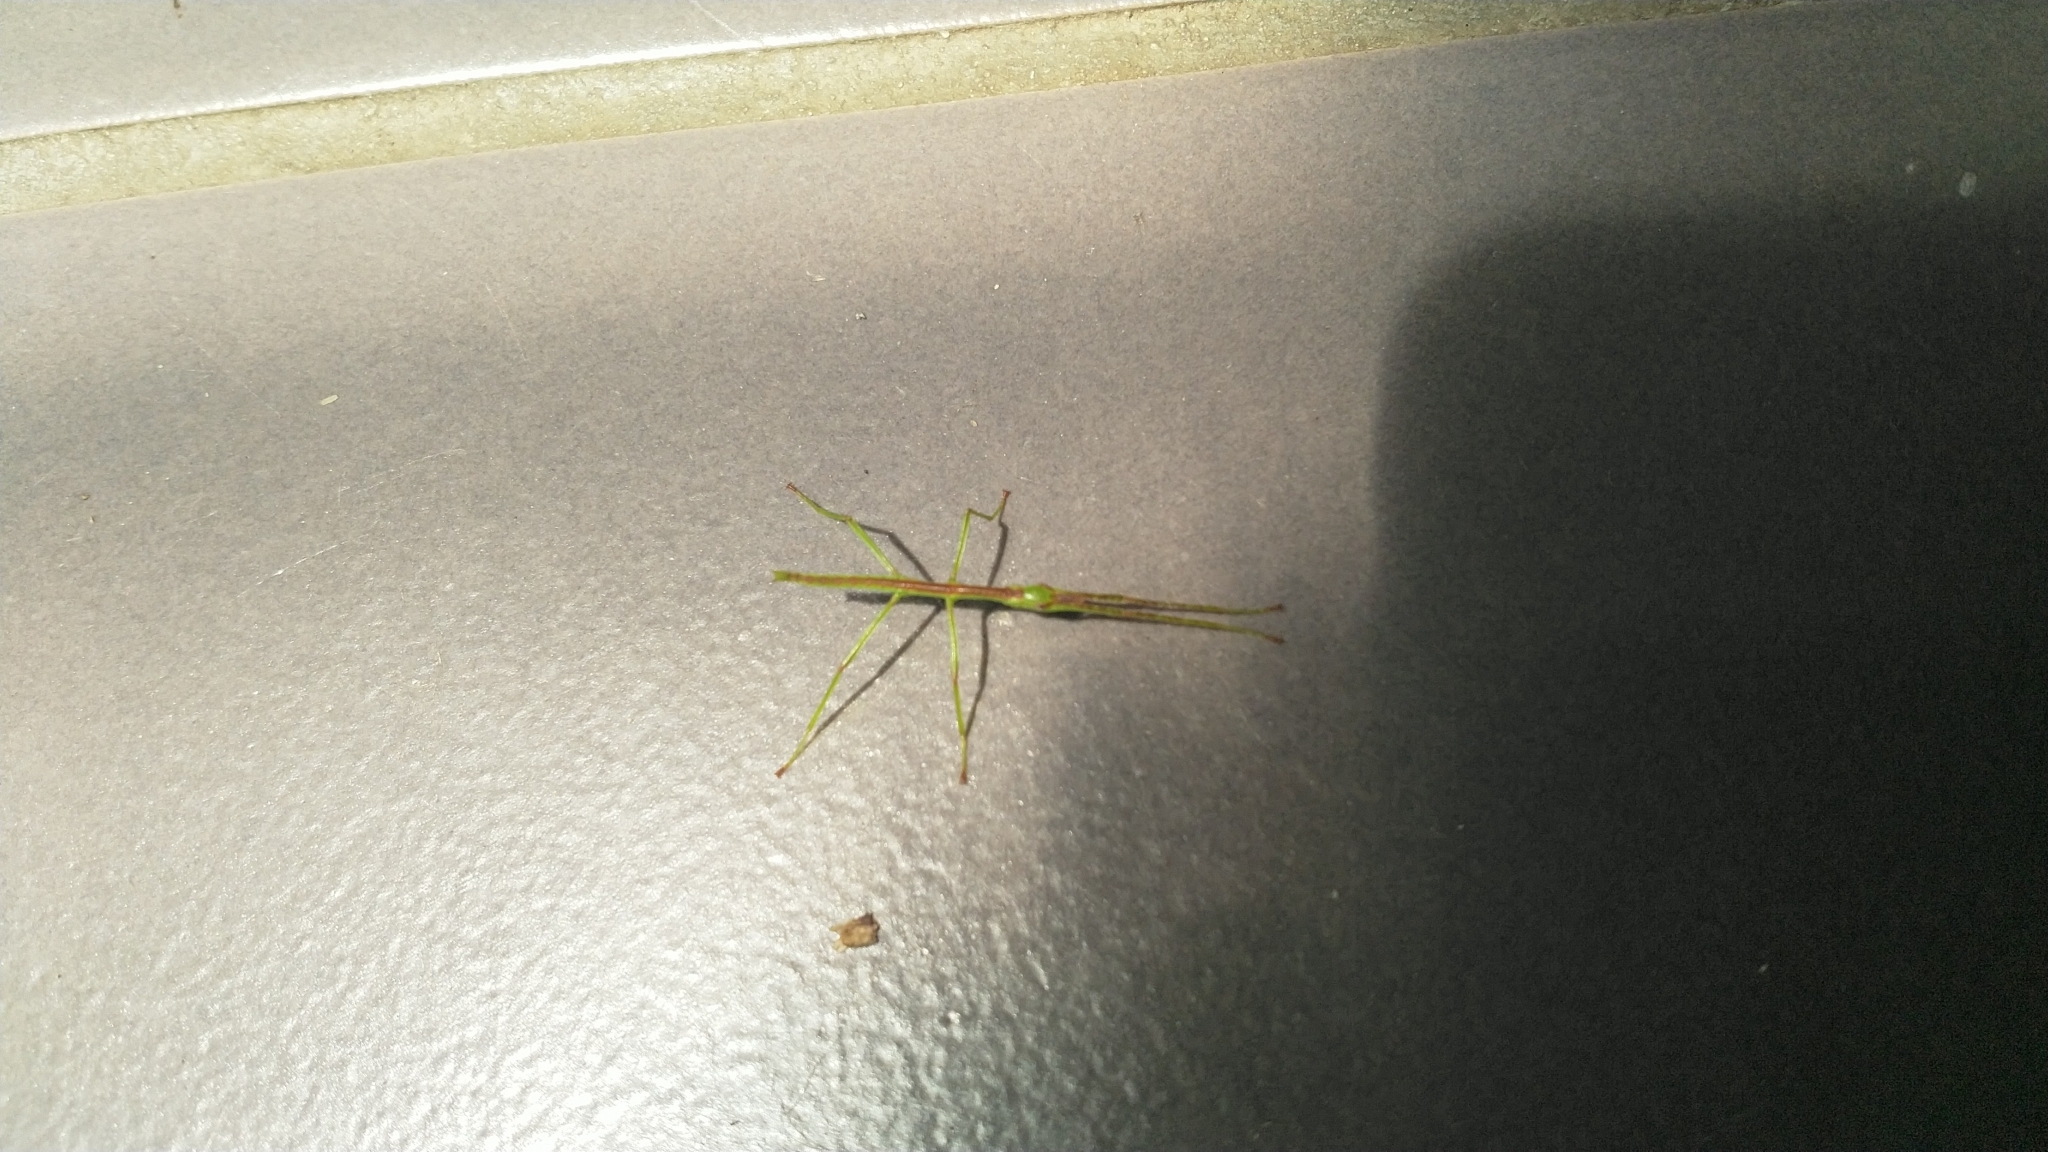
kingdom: Animalia
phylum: Arthropoda
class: Insecta
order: Phasmida
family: Phasmatidae
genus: Clitarchus
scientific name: Clitarchus hookeri
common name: Smooth stick insect
